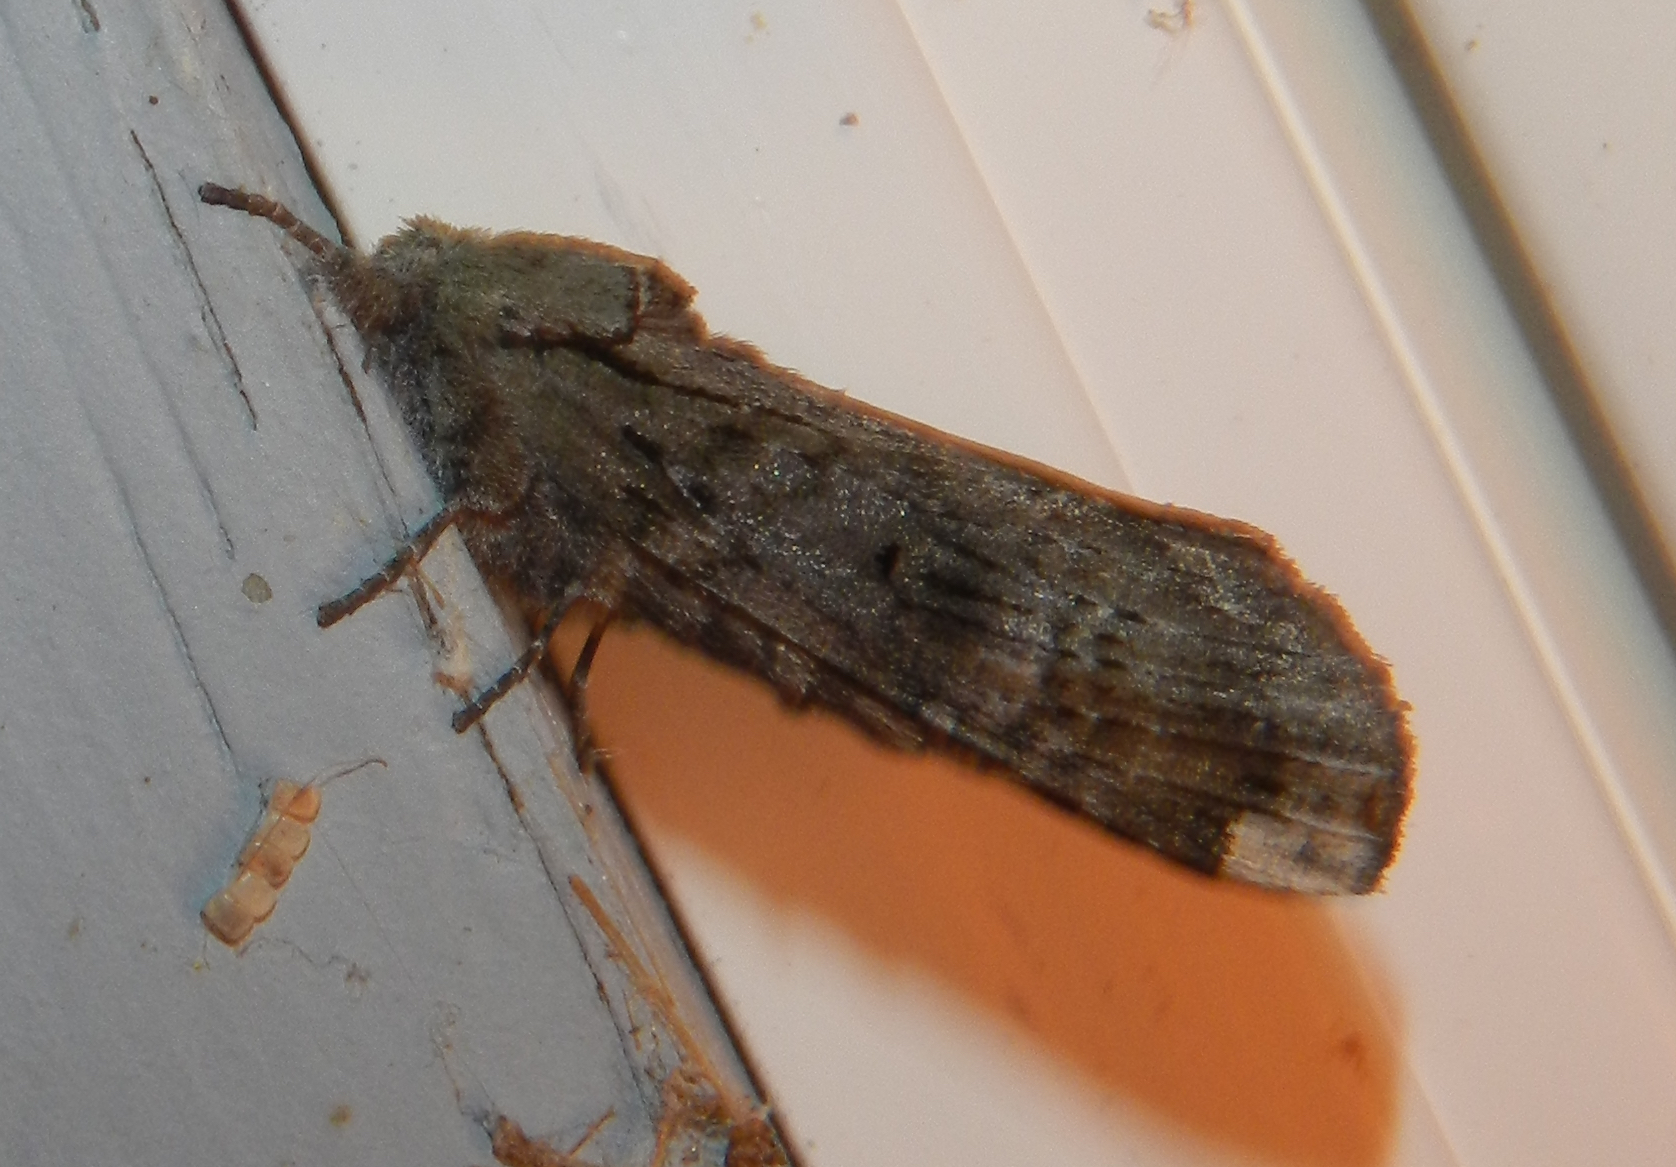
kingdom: Animalia
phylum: Arthropoda
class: Insecta
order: Lepidoptera
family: Notodontidae
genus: Schizura
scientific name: Schizura
